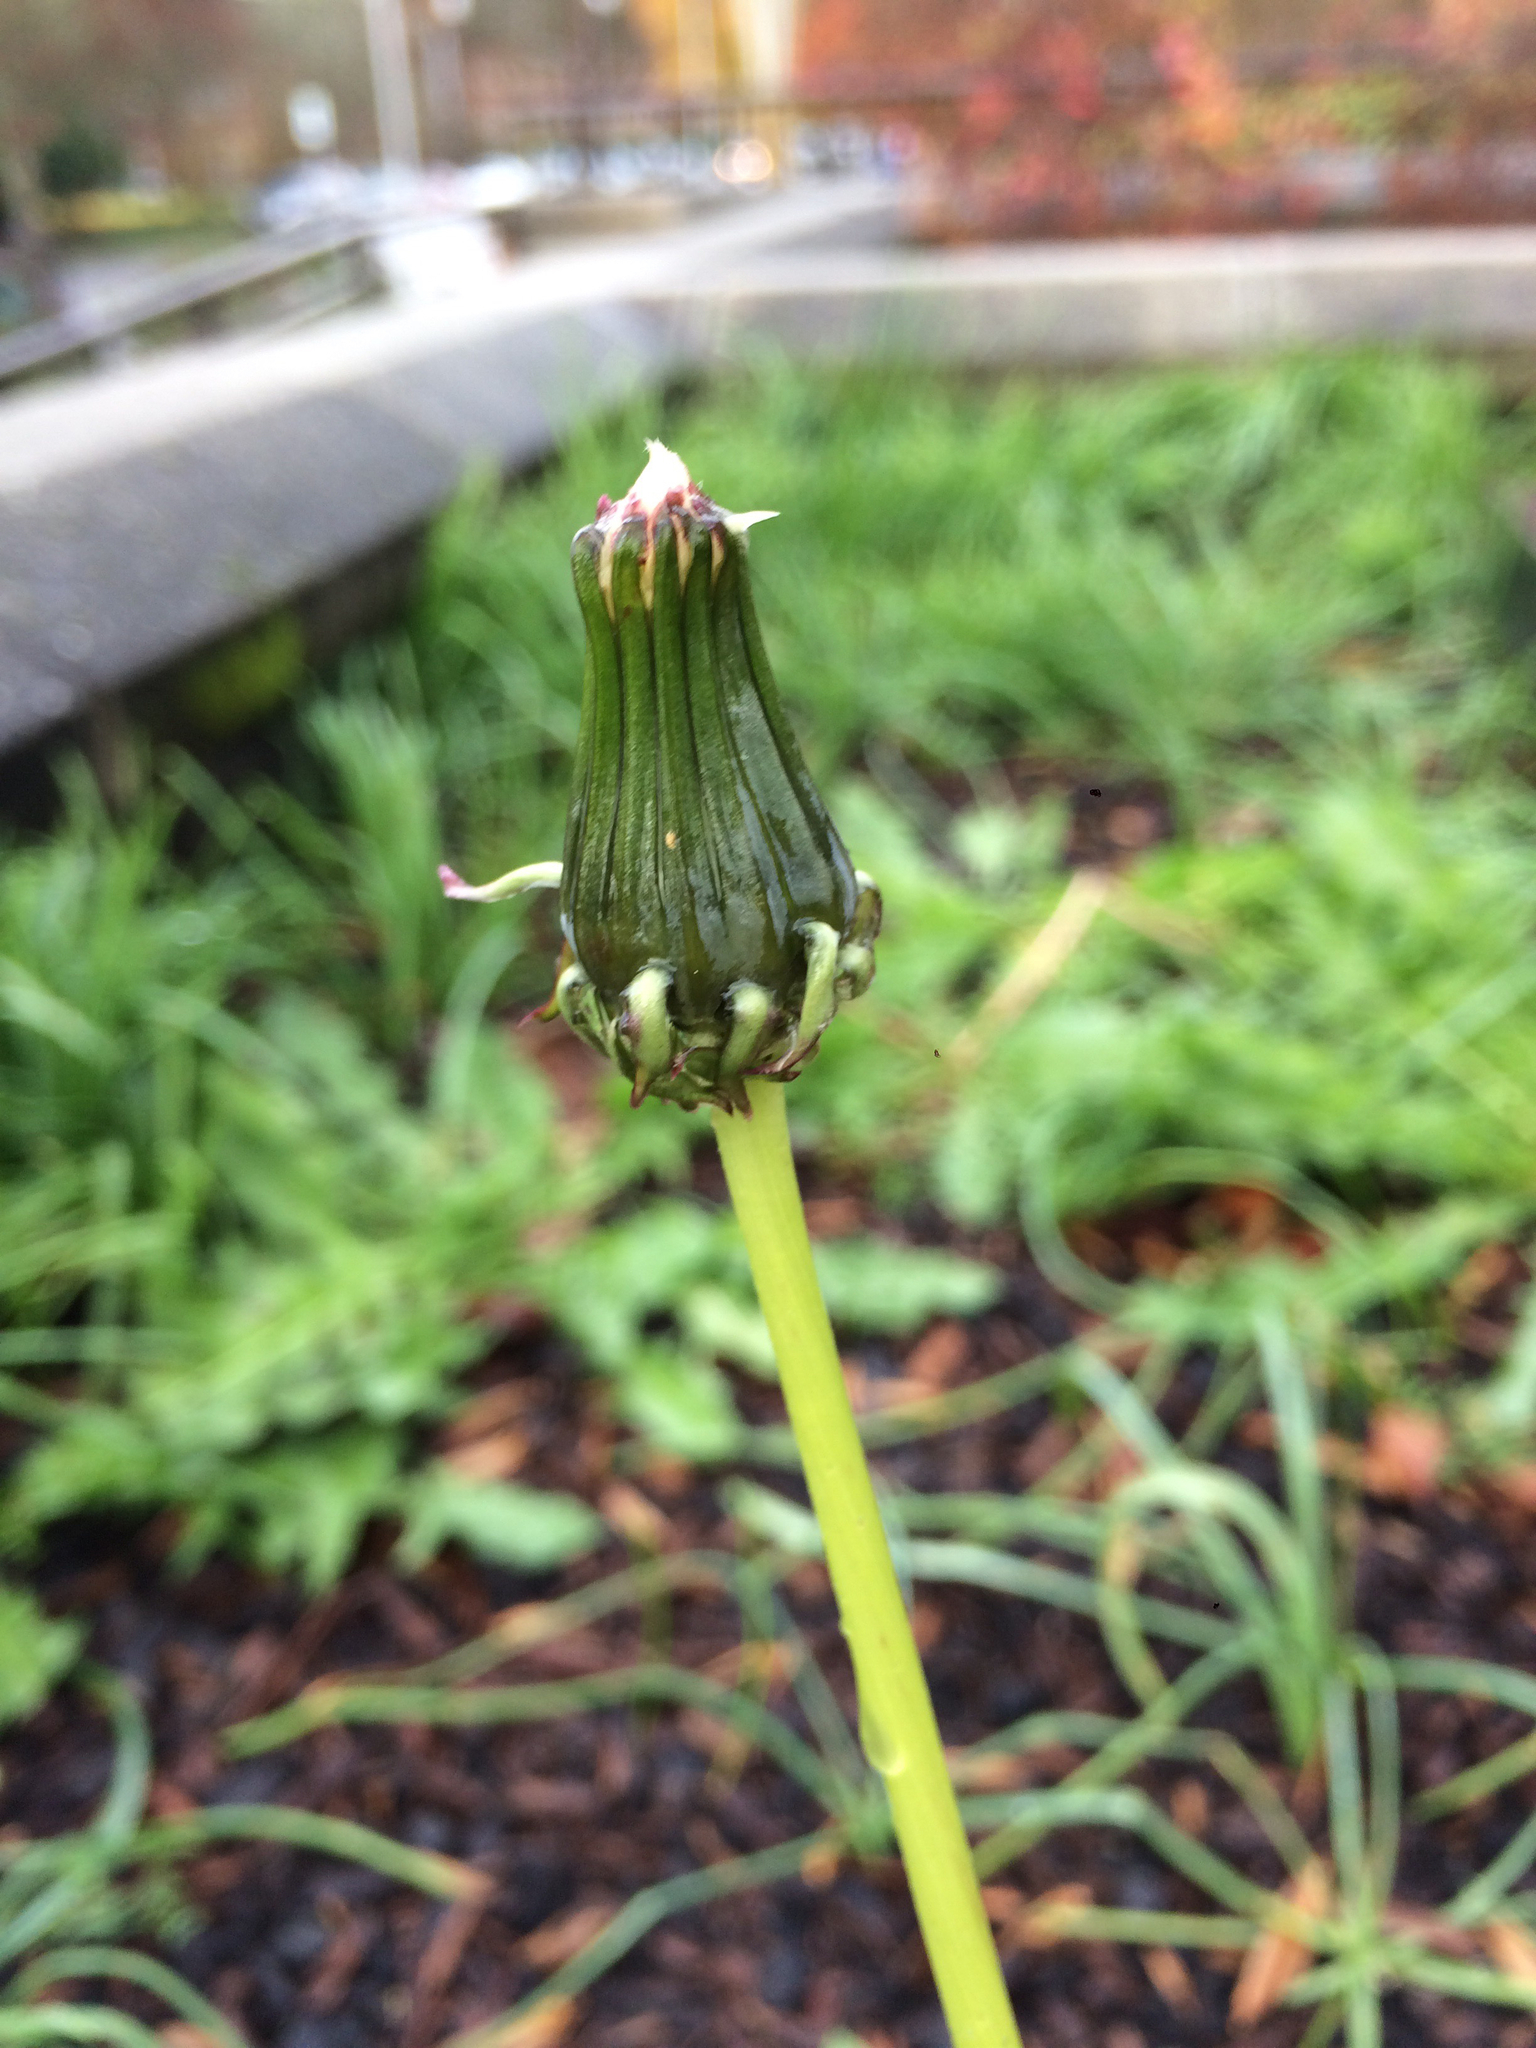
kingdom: Plantae
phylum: Tracheophyta
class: Magnoliopsida
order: Asterales
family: Asteraceae
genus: Taraxacum
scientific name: Taraxacum officinale
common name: Common dandelion
